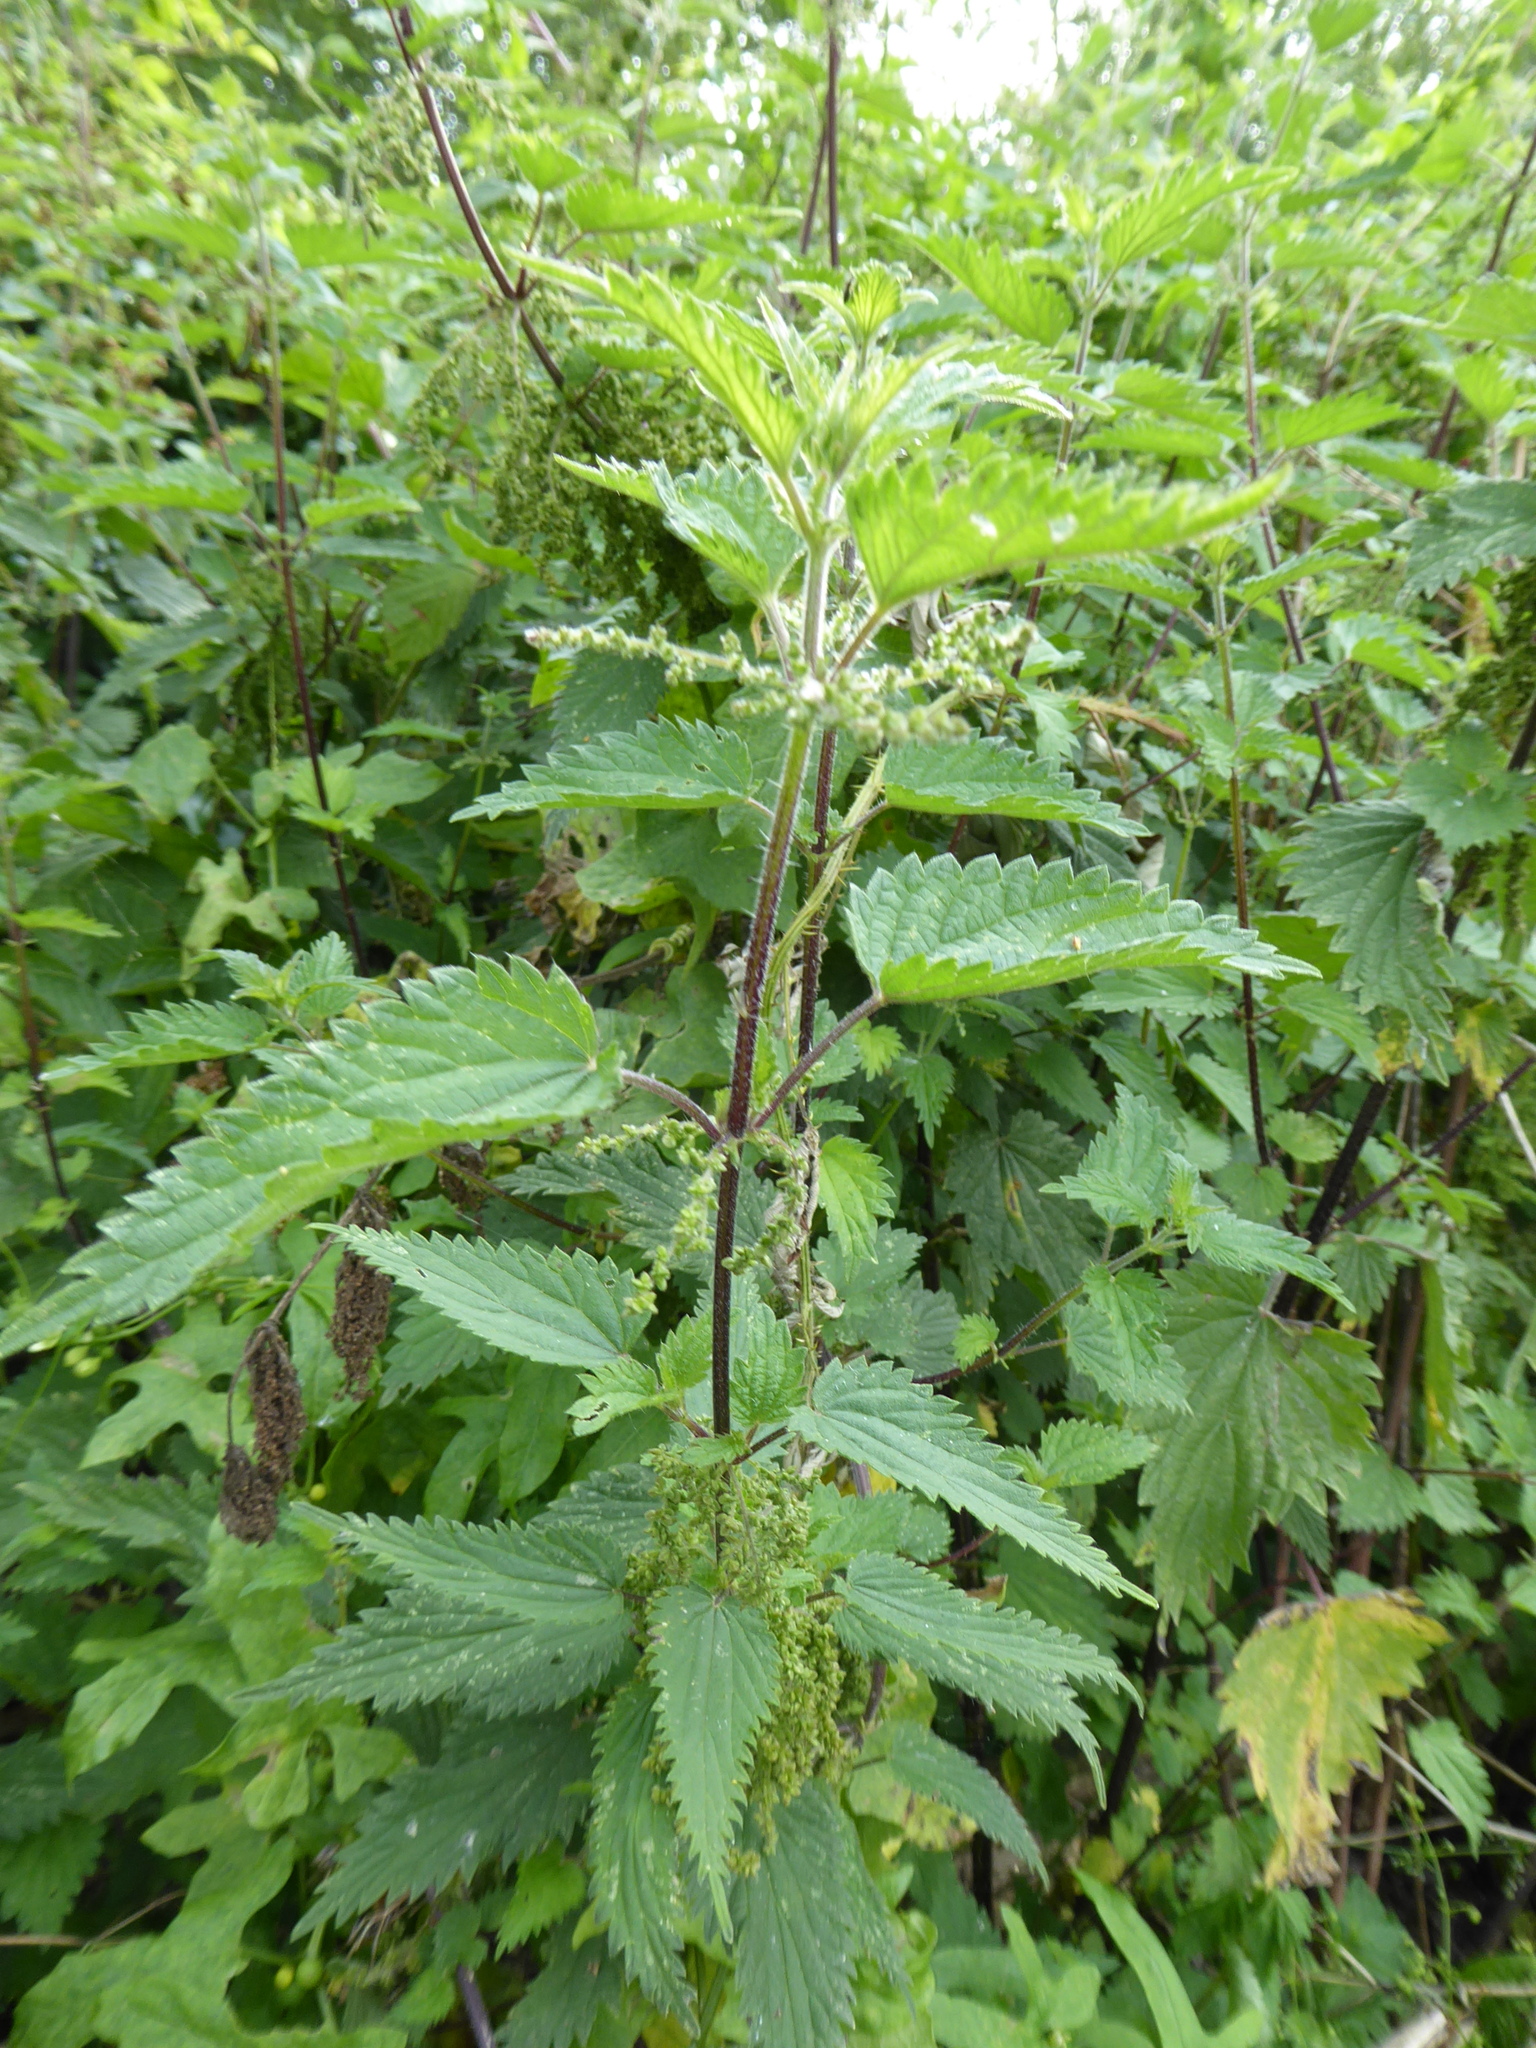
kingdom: Plantae
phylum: Tracheophyta
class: Magnoliopsida
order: Rosales
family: Urticaceae
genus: Urtica
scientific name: Urtica dioica
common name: Common nettle
